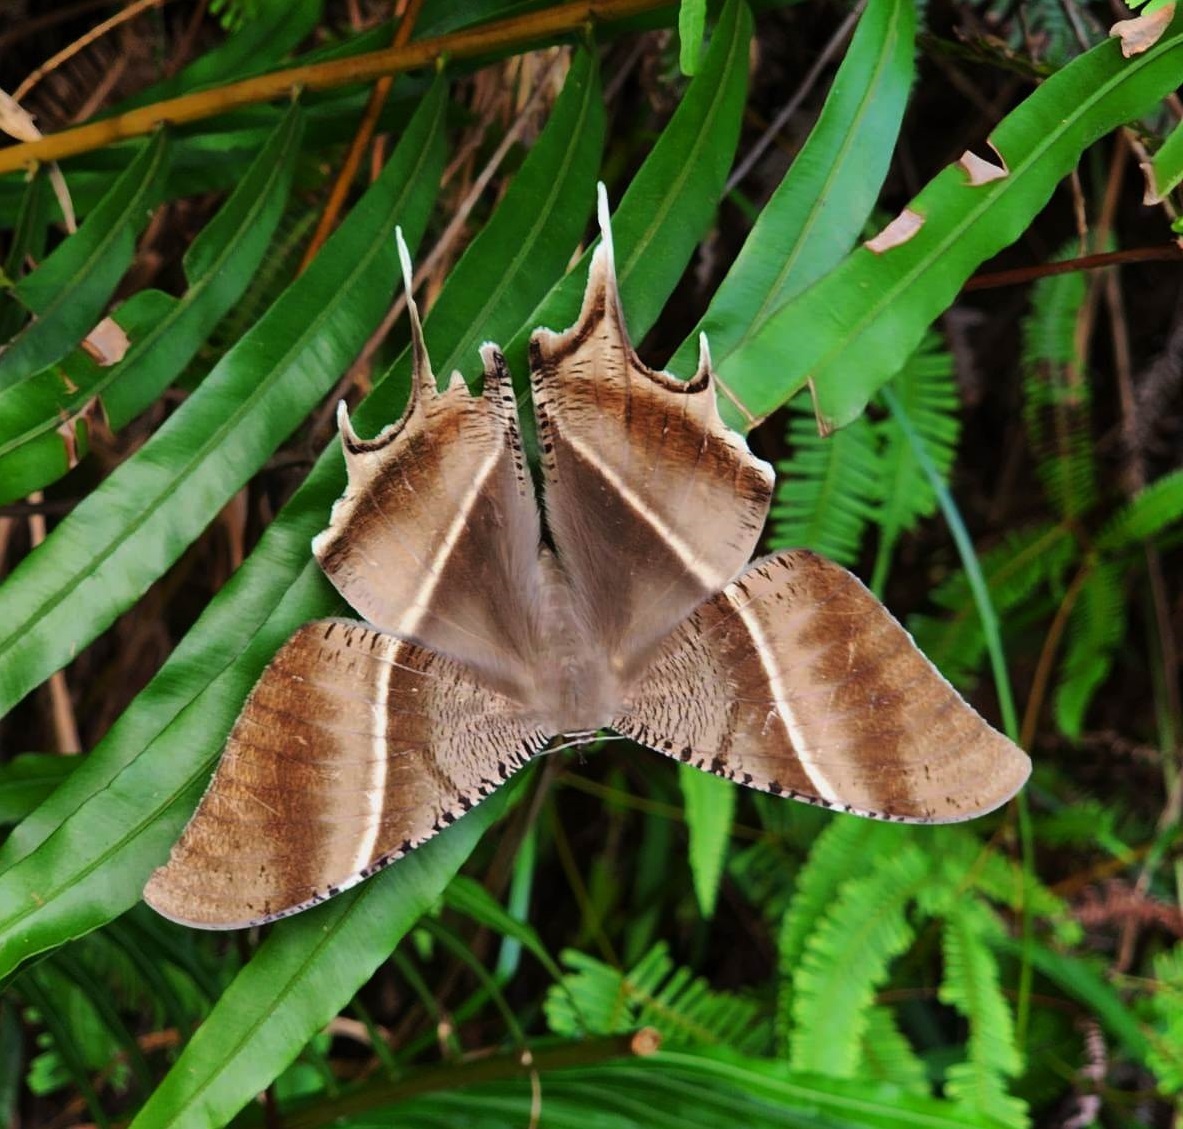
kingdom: Animalia
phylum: Arthropoda
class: Insecta
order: Lepidoptera
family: Uraniidae
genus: Lyssa
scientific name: Lyssa zampa
